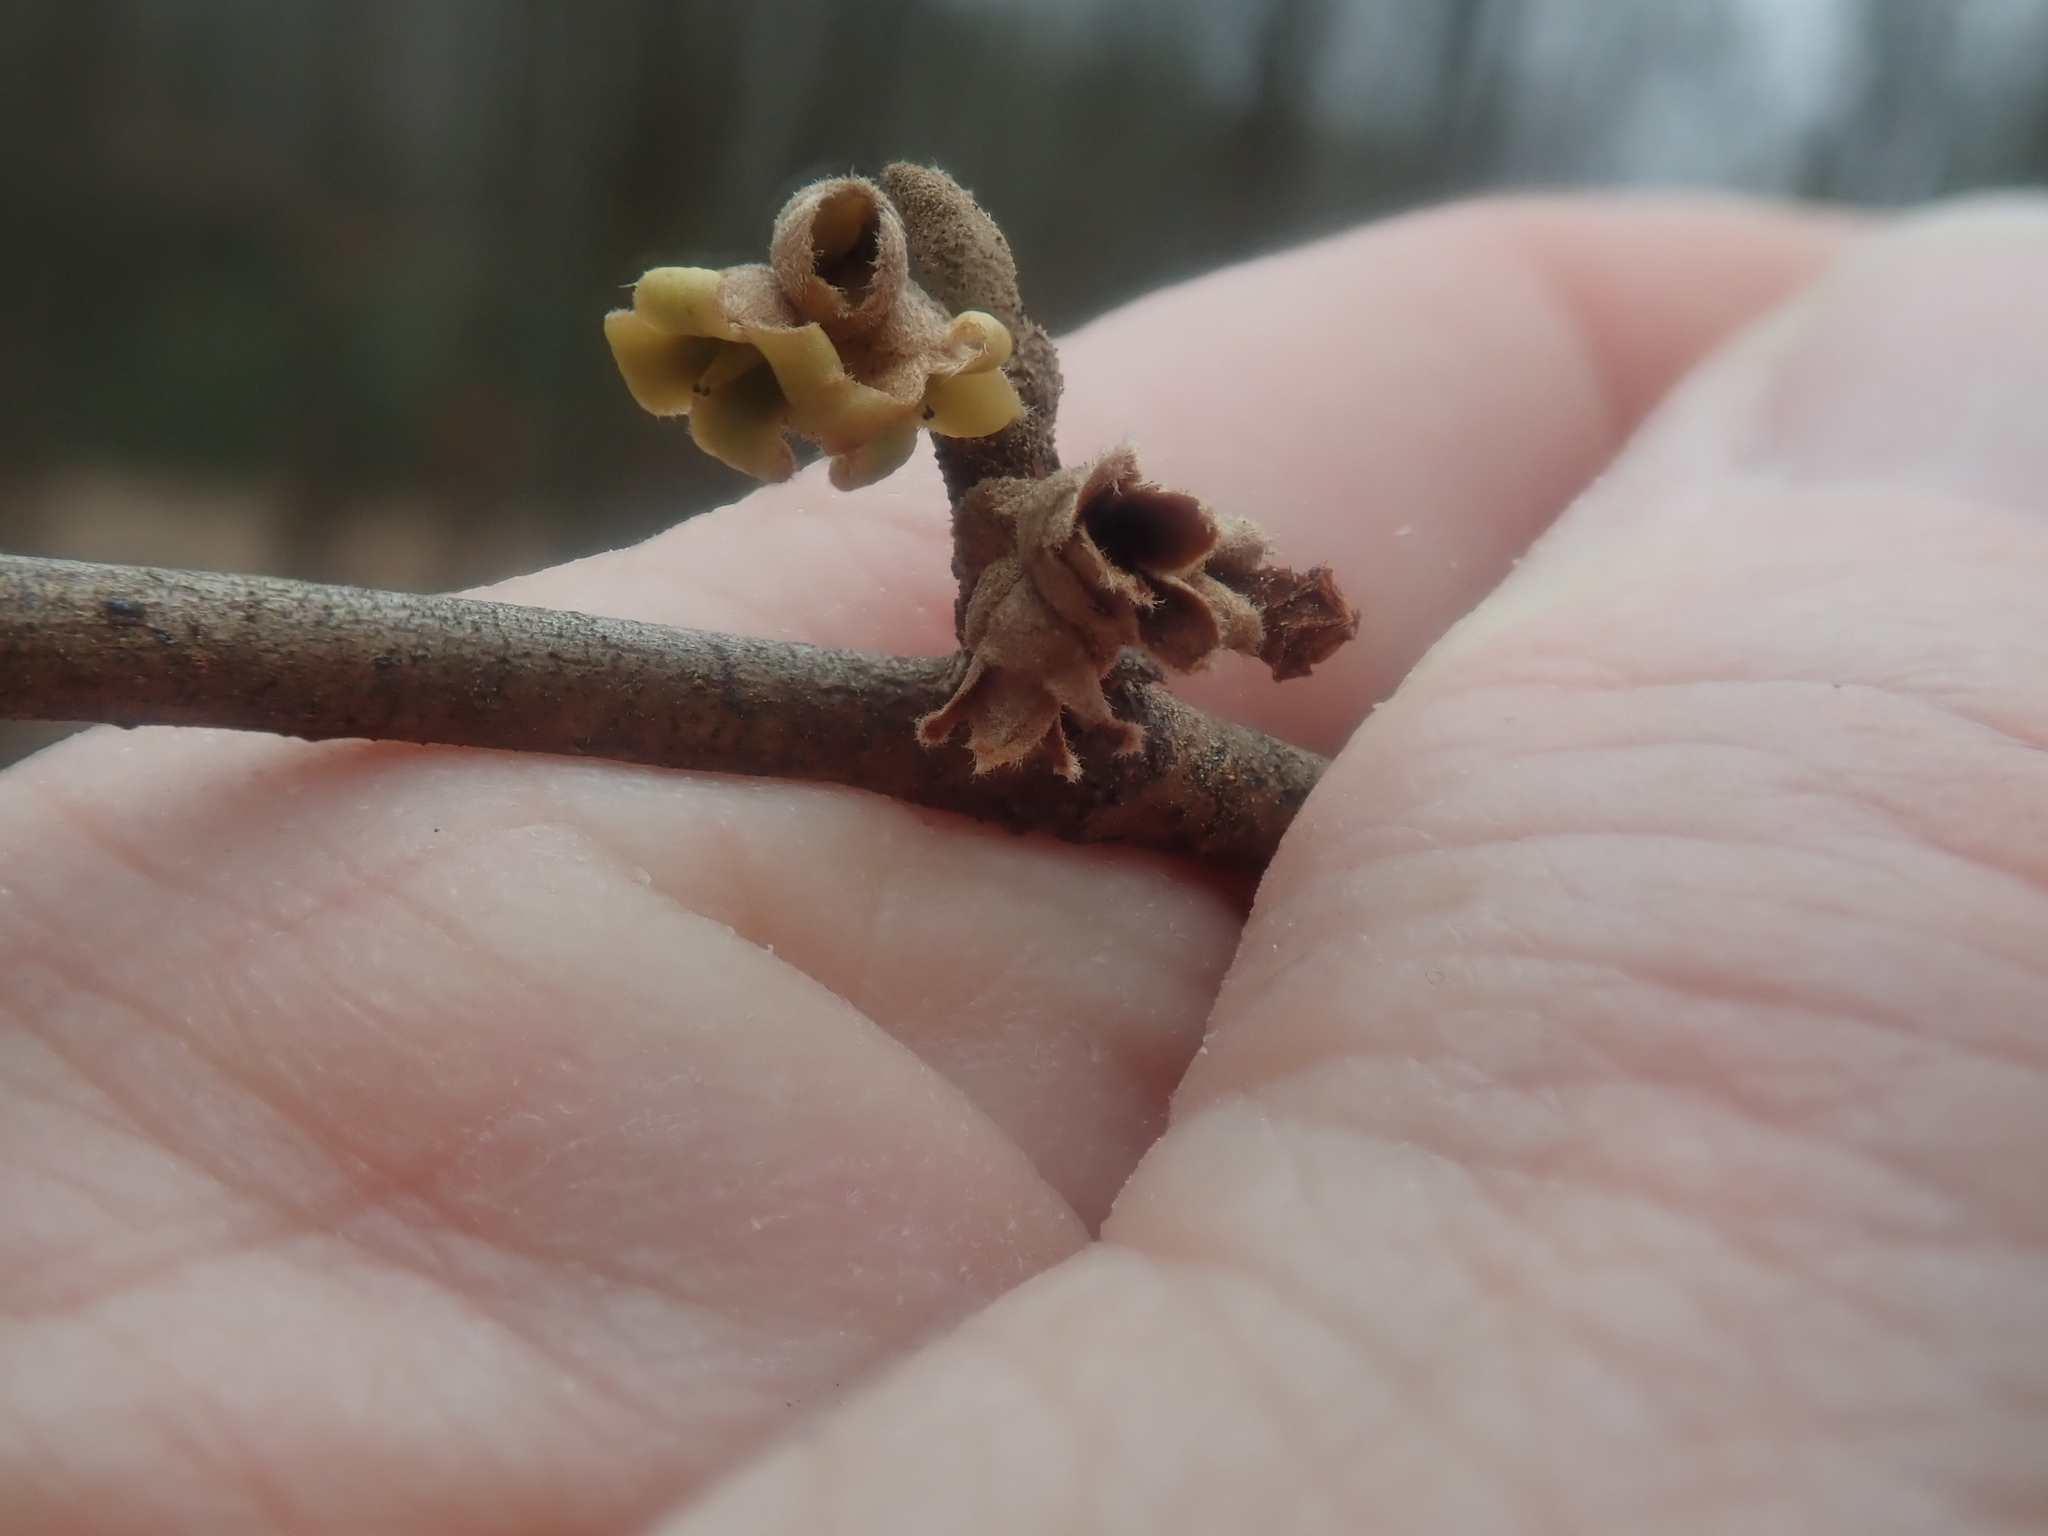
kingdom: Plantae
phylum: Tracheophyta
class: Magnoliopsida
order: Saxifragales
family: Hamamelidaceae
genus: Hamamelis
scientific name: Hamamelis virginiana
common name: Witch-hazel
